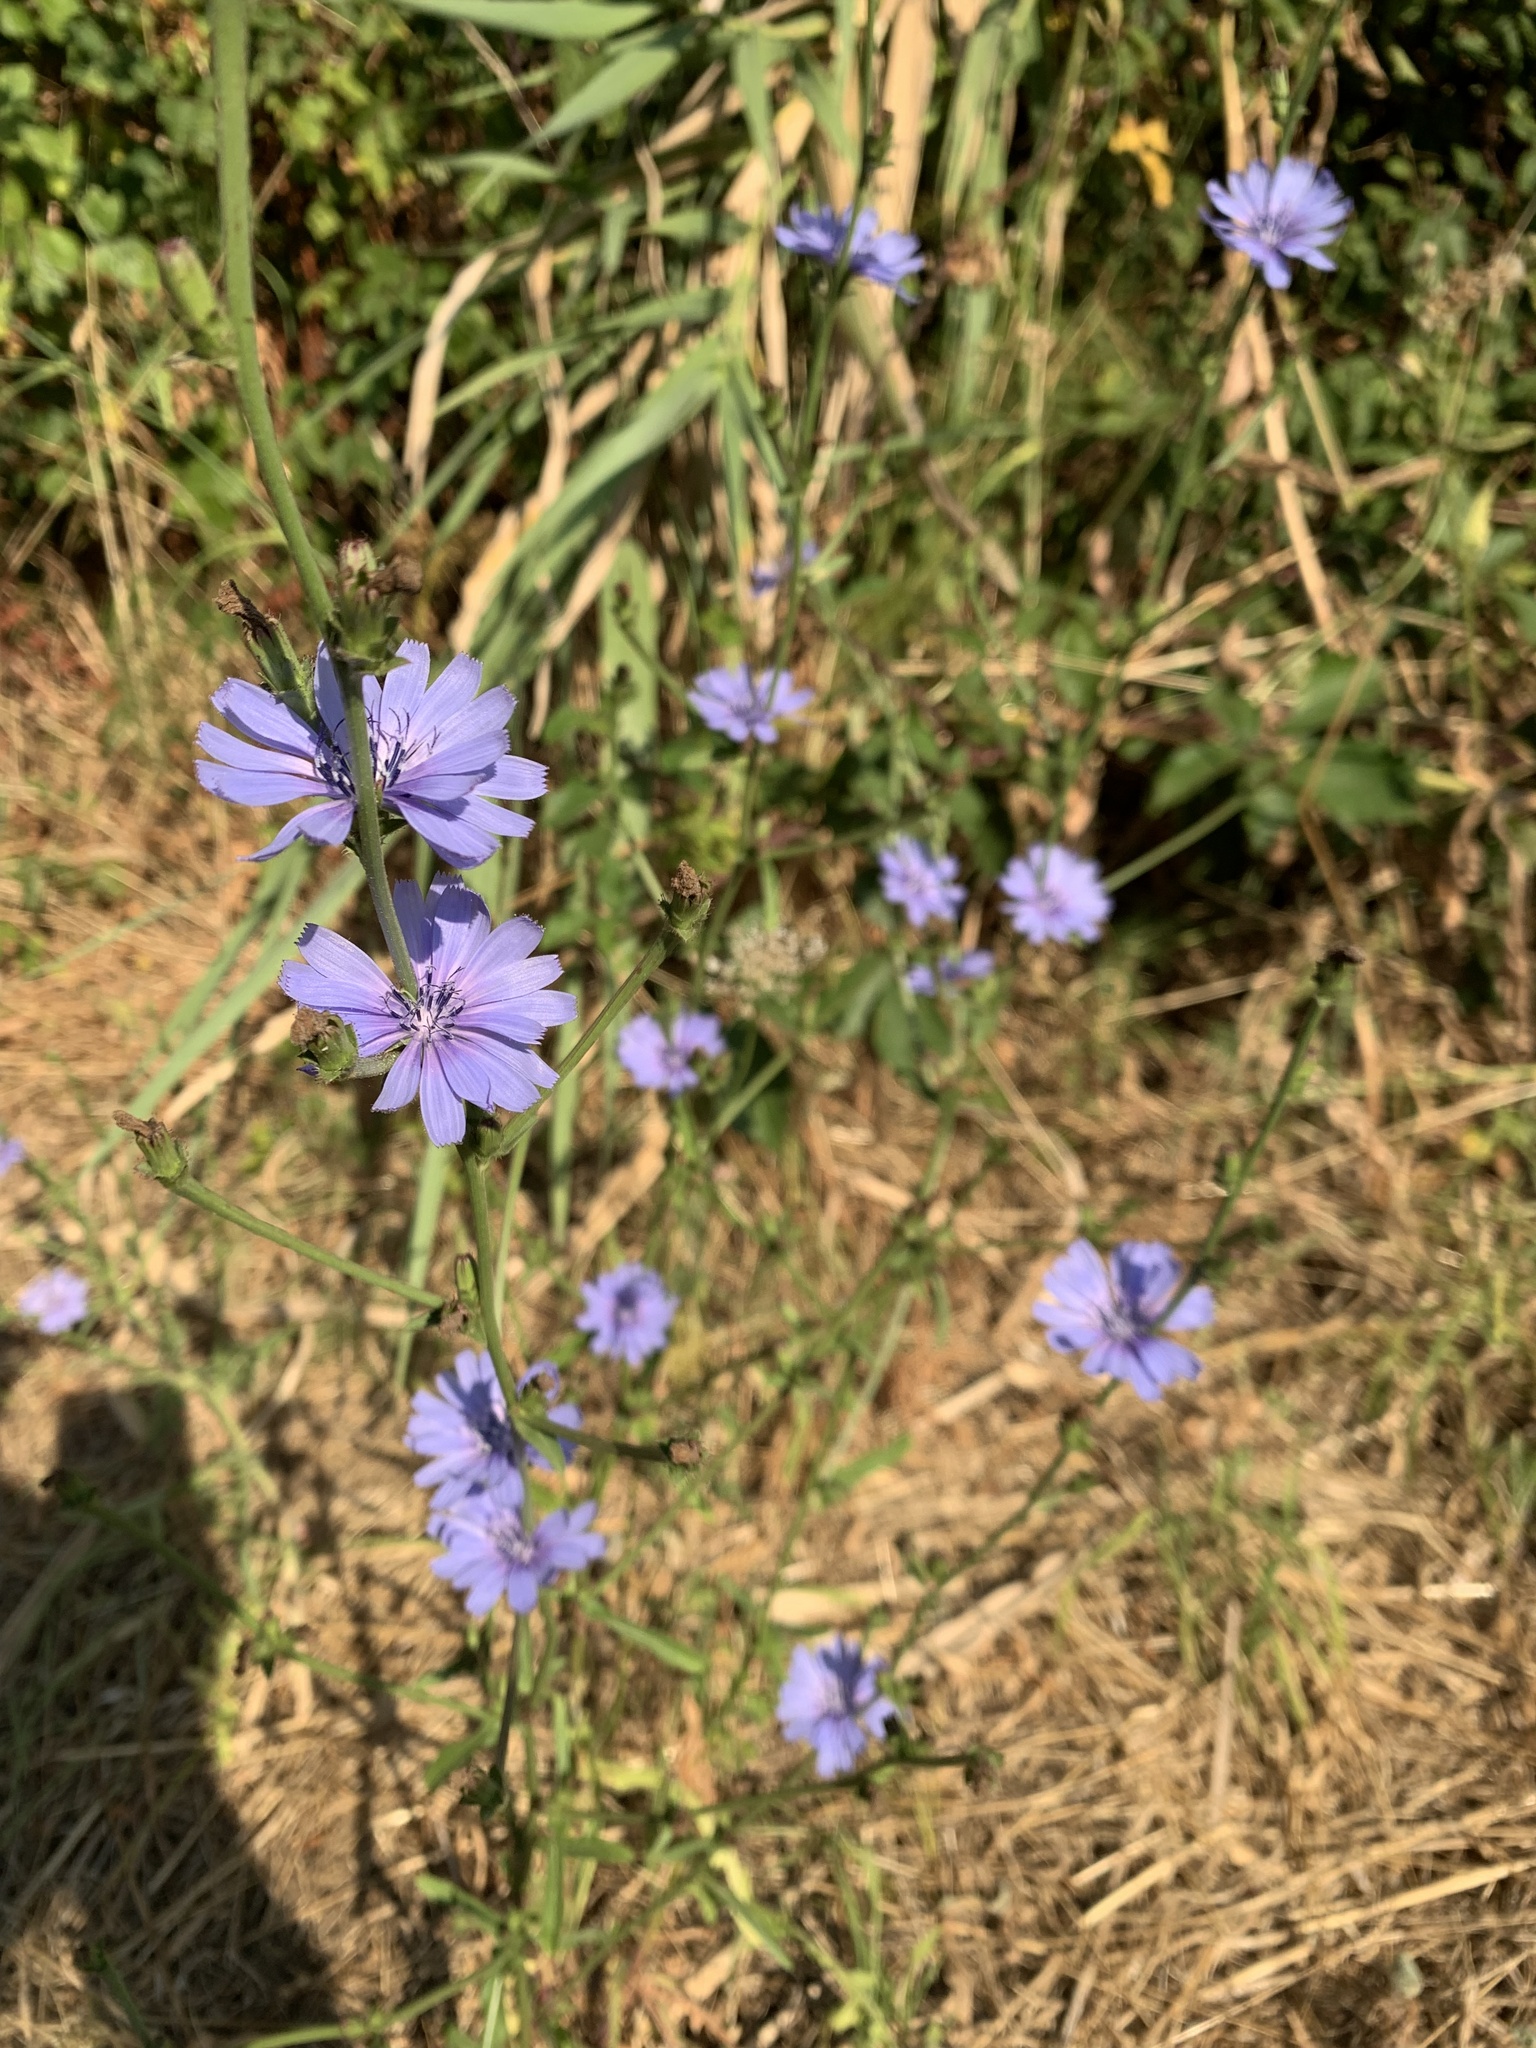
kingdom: Plantae
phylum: Tracheophyta
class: Magnoliopsida
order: Asterales
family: Asteraceae
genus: Cichorium
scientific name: Cichorium intybus
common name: Chicory
